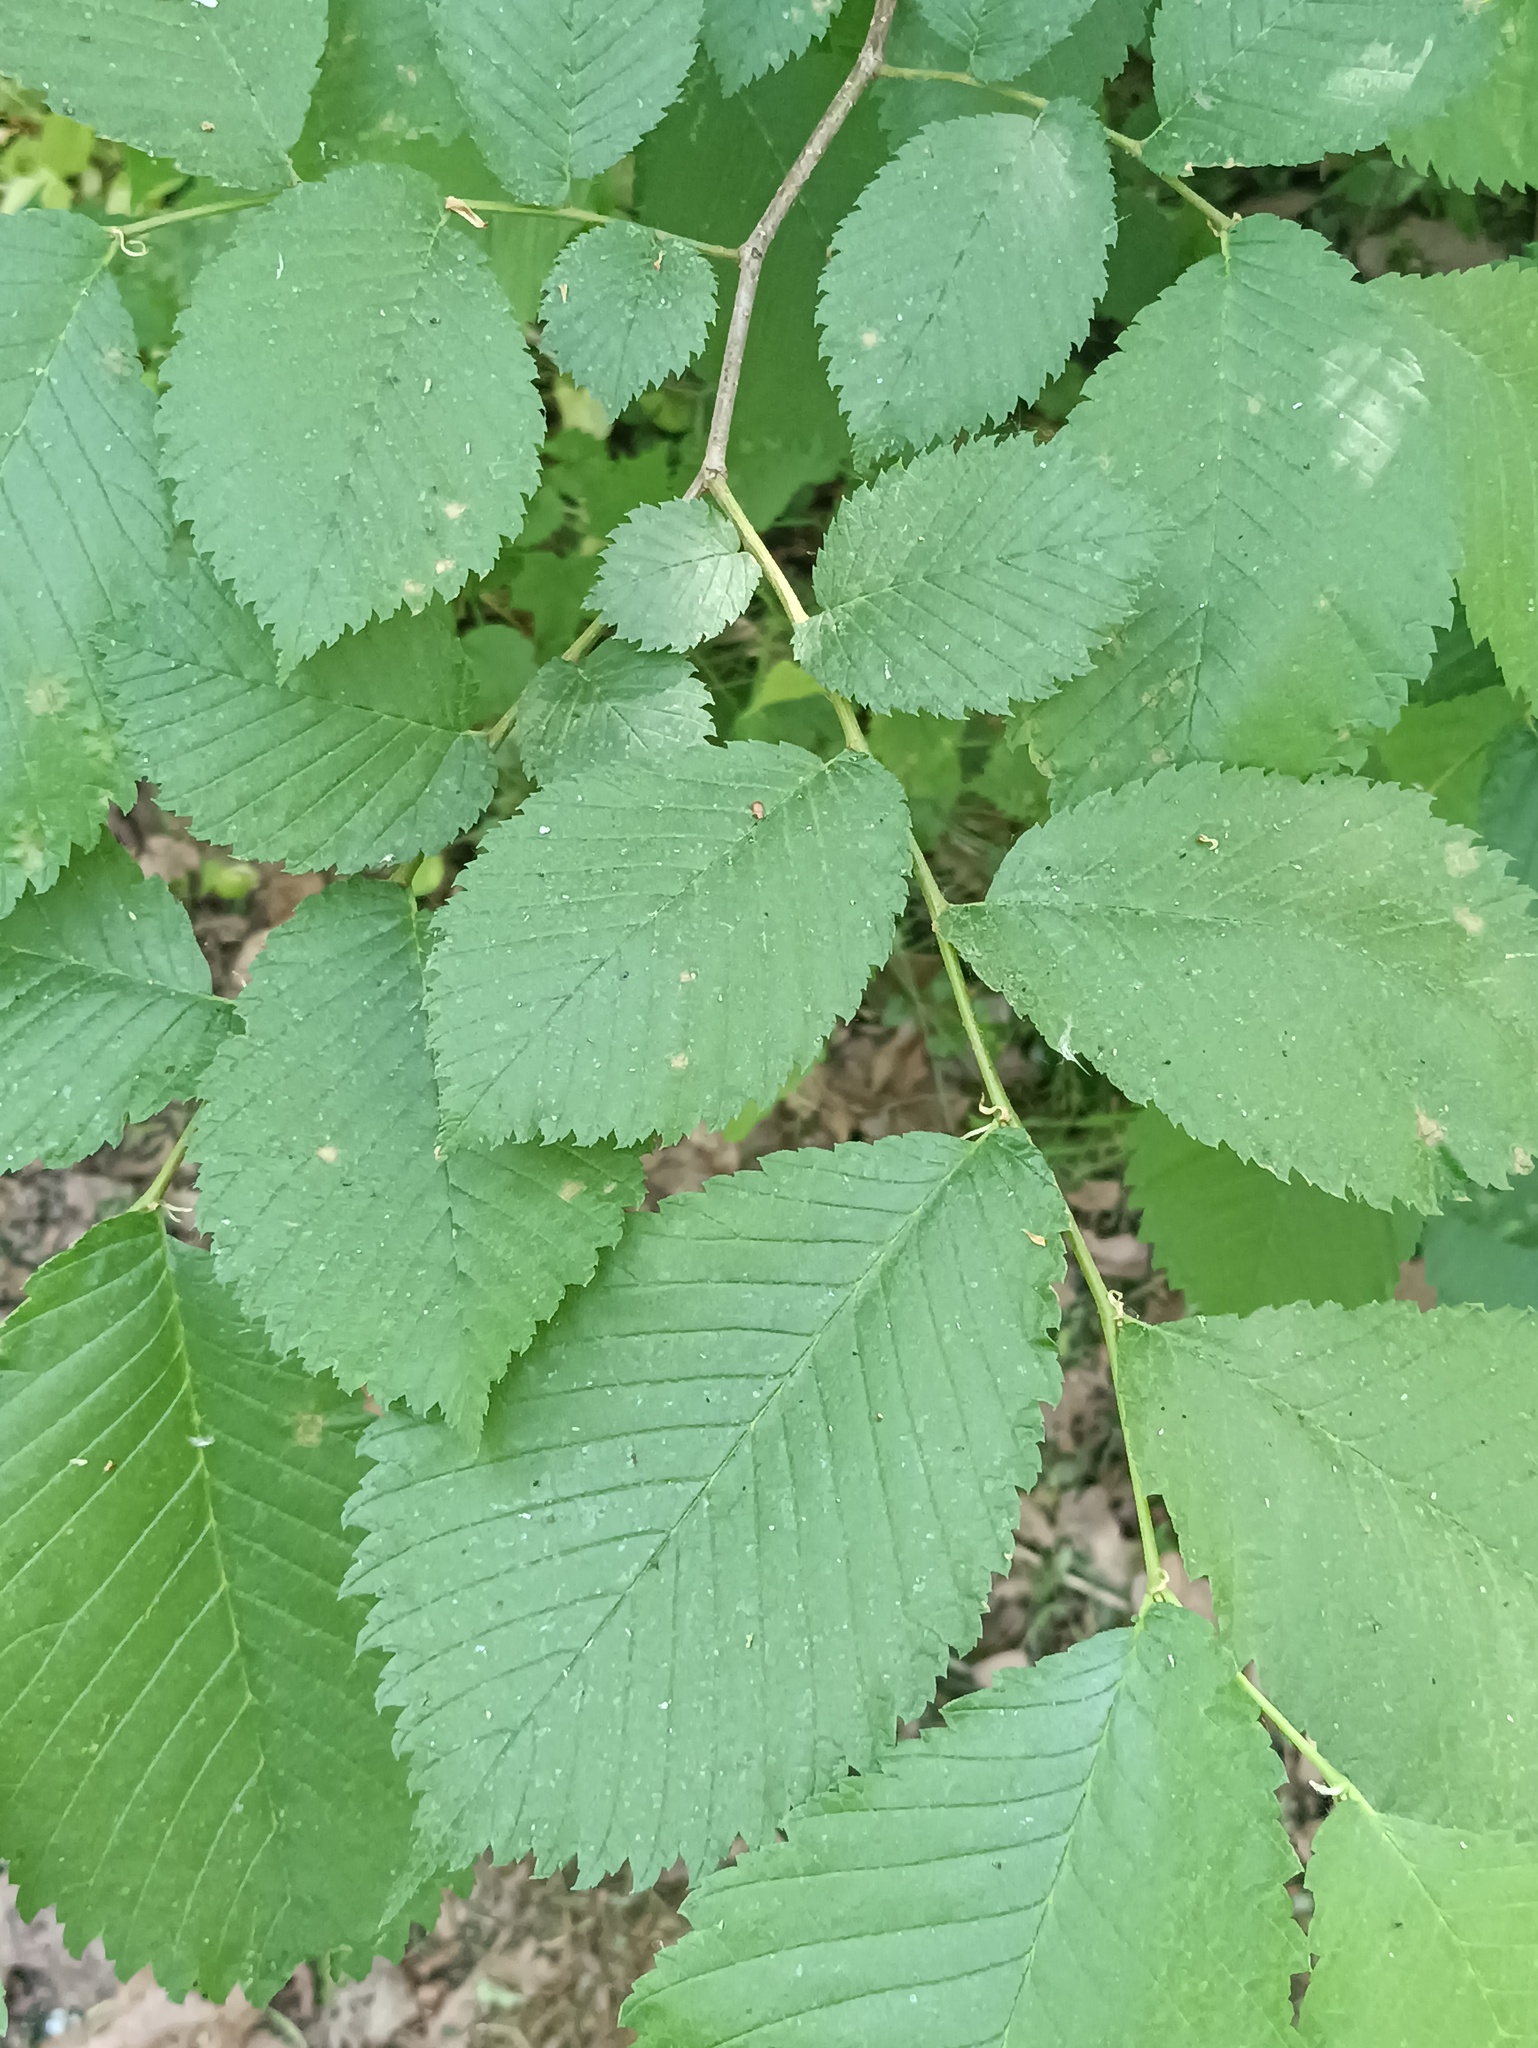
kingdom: Plantae
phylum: Tracheophyta
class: Magnoliopsida
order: Rosales
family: Ulmaceae
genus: Ulmus
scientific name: Ulmus laevis
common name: European white-elm
